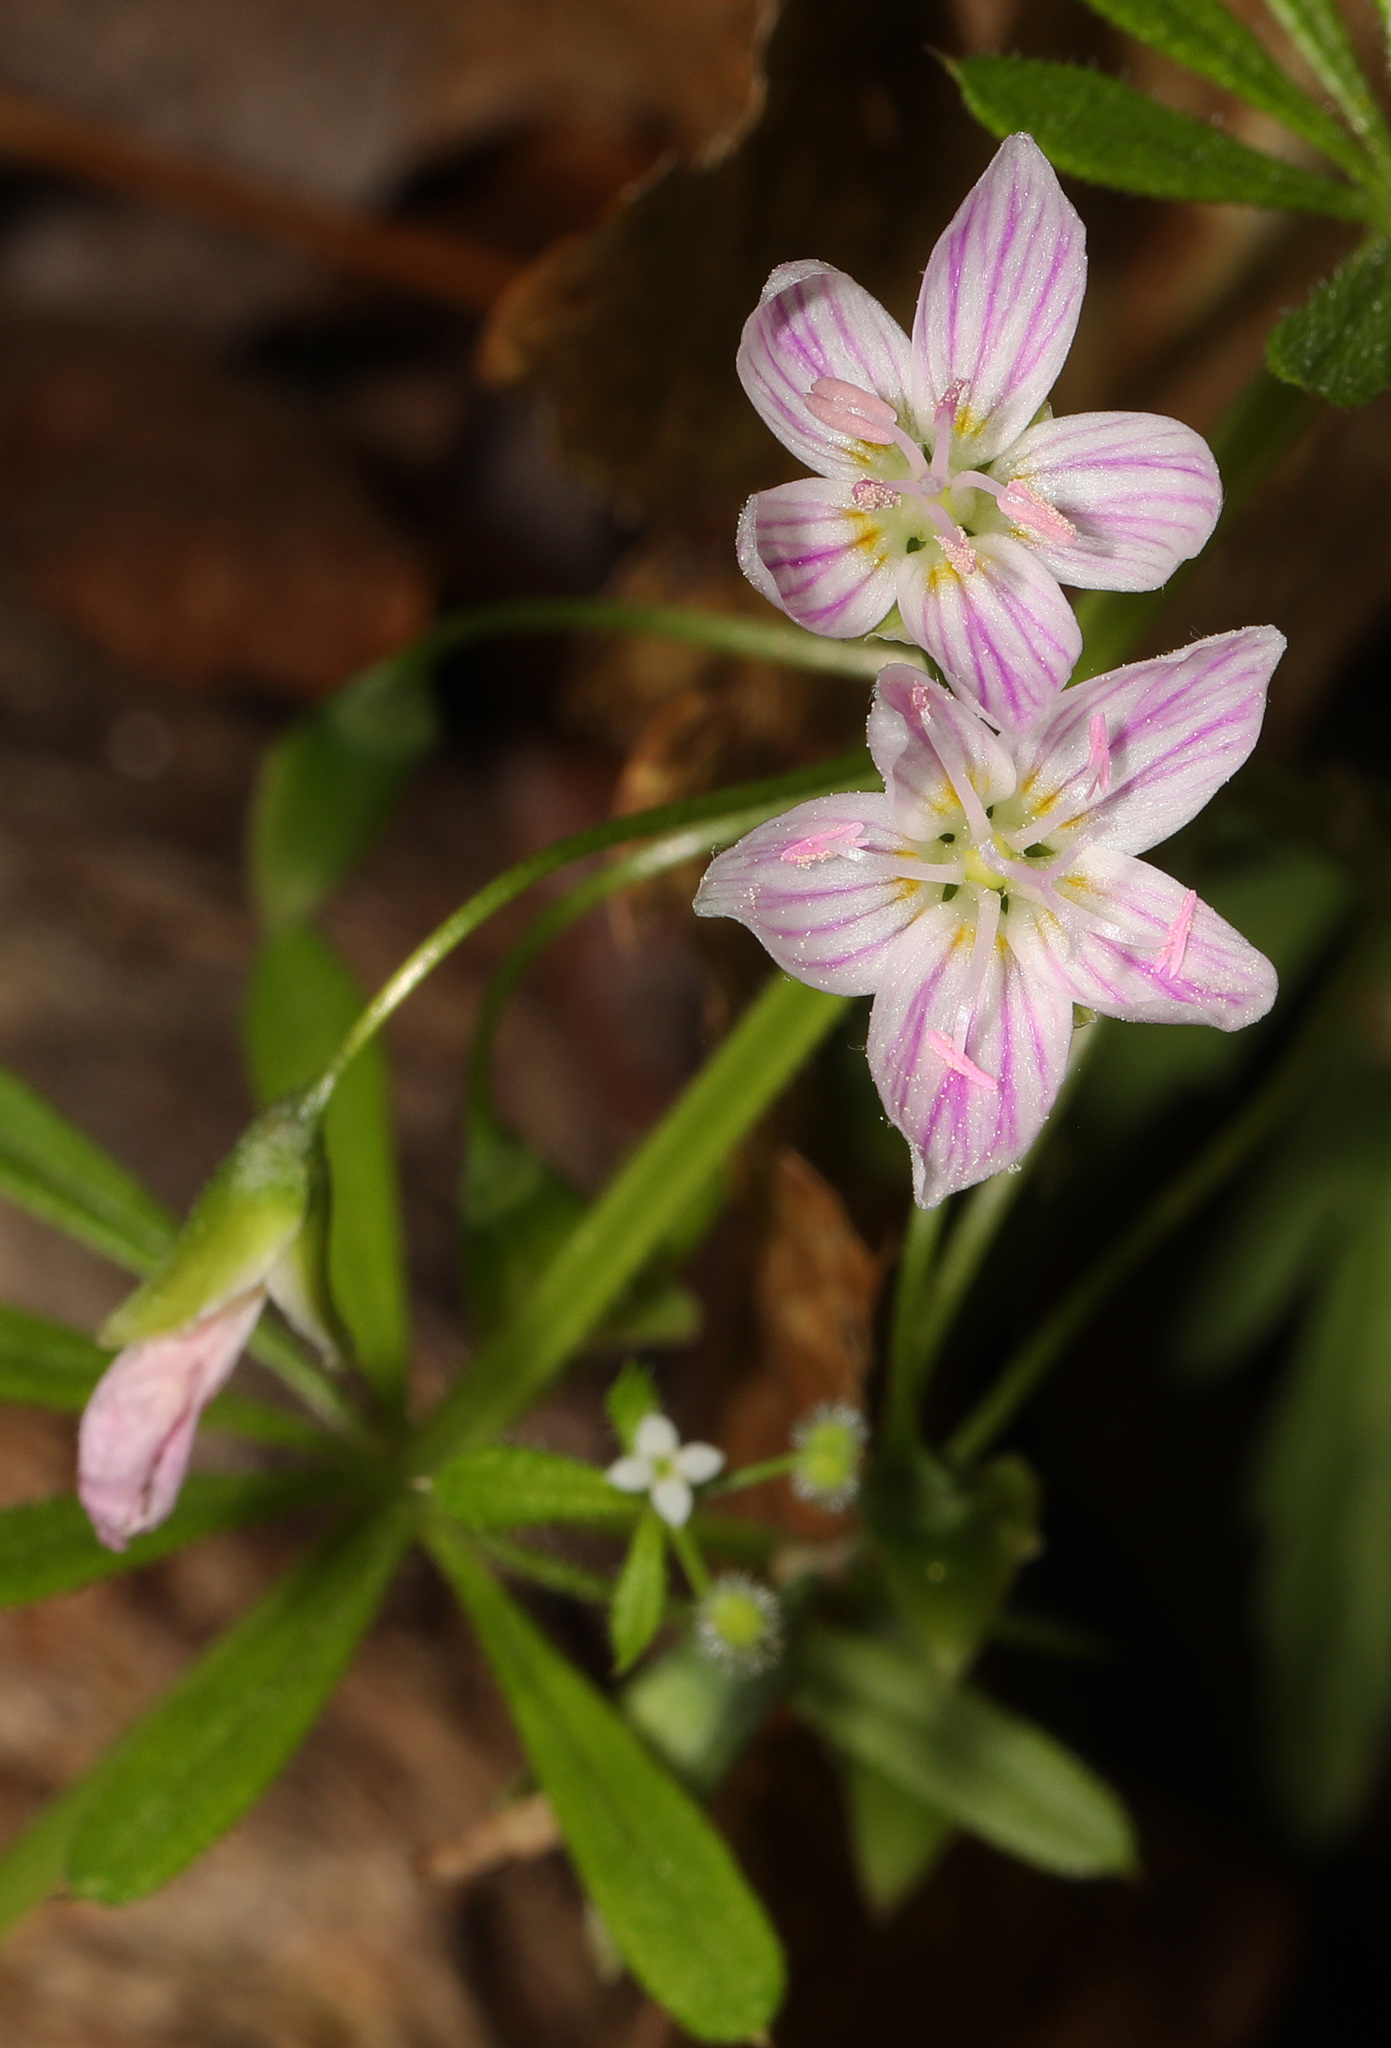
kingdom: Plantae
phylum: Tracheophyta
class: Magnoliopsida
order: Caryophyllales
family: Montiaceae
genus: Claytonia
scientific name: Claytonia virginica
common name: Virginia springbeauty
